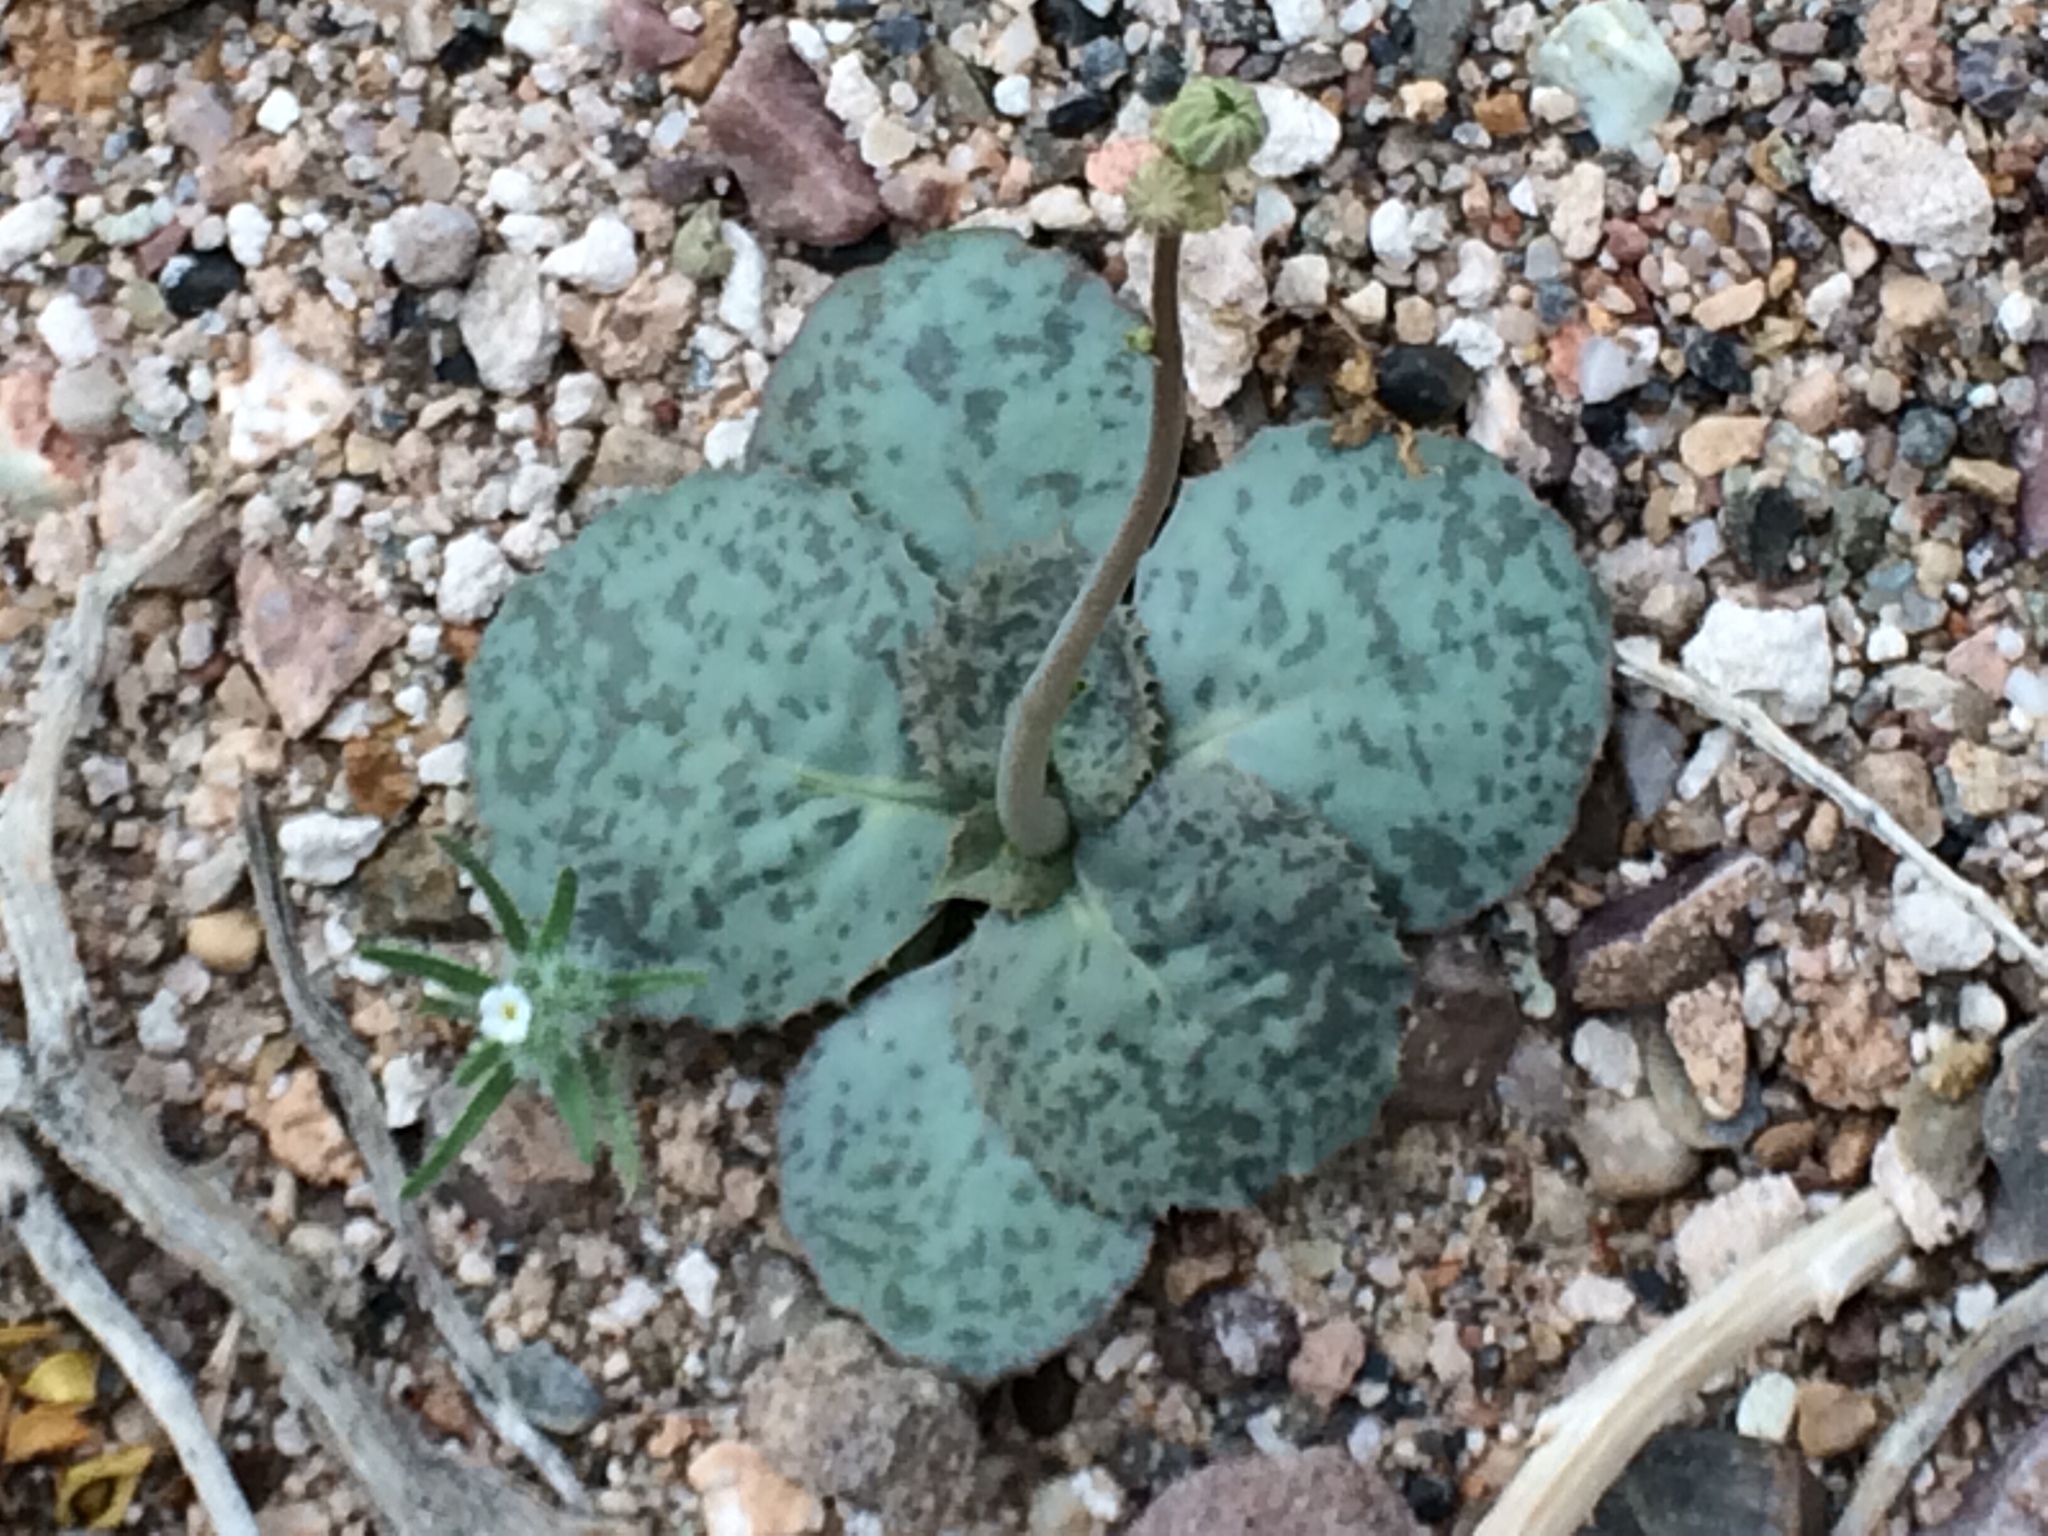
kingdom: Plantae
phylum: Tracheophyta
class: Magnoliopsida
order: Asterales
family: Asteraceae
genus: Atrichoseris
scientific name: Atrichoseris platyphylla
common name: Tobaccoweed
